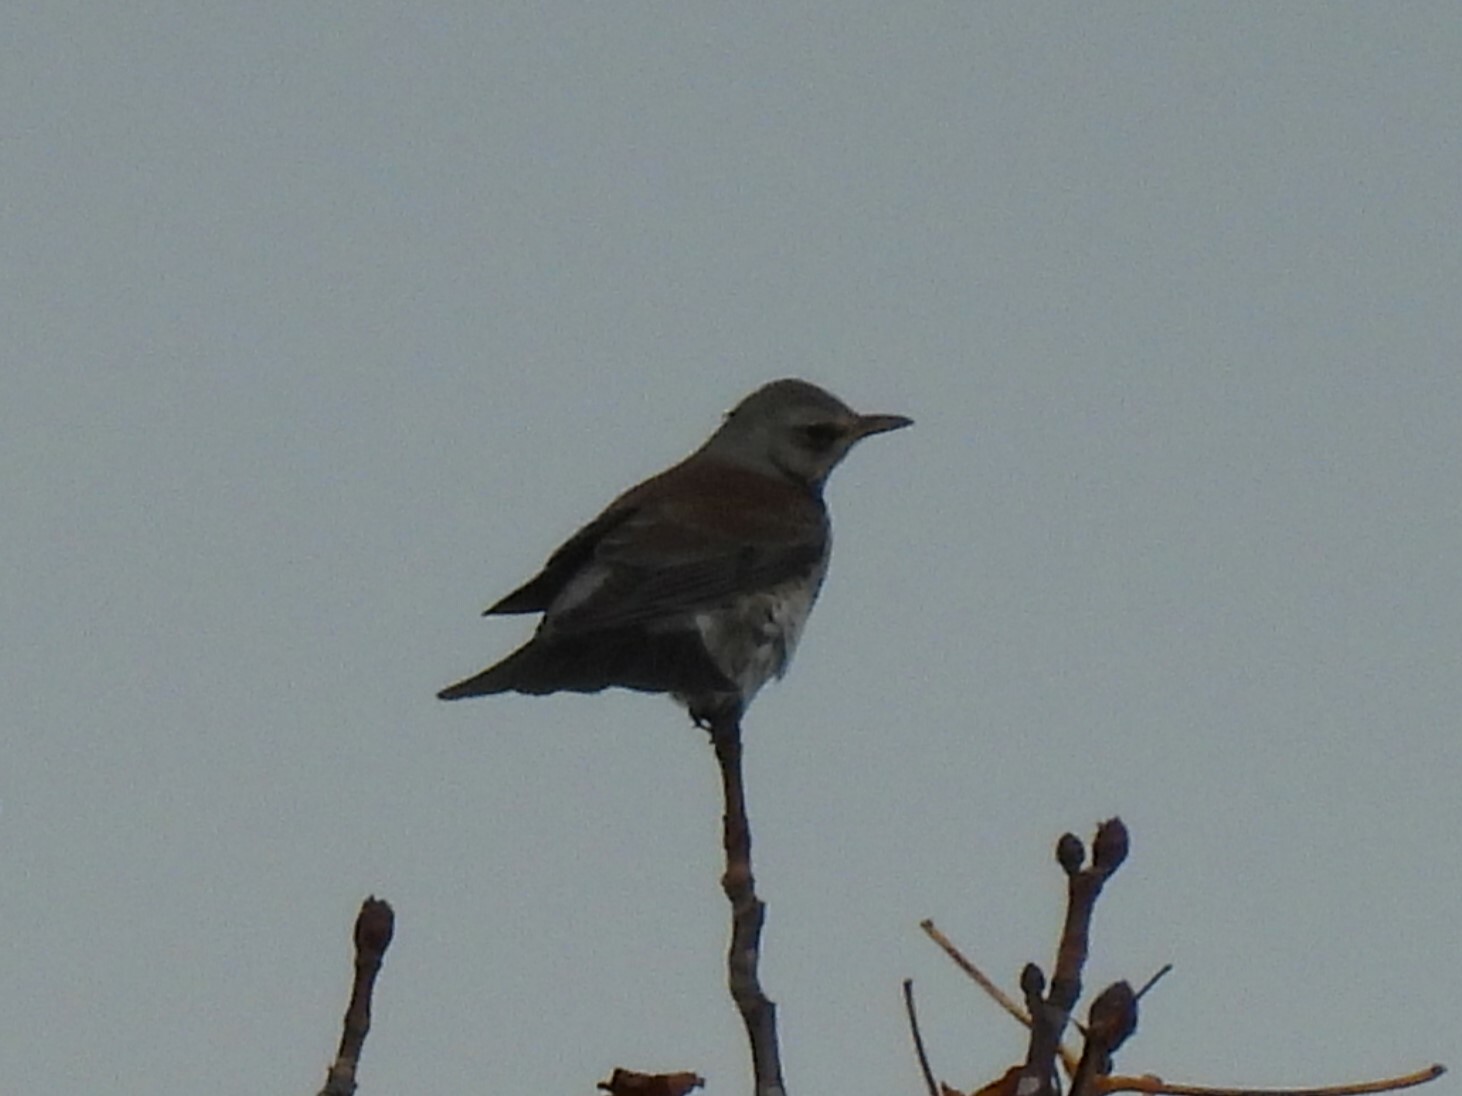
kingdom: Animalia
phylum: Chordata
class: Aves
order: Passeriformes
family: Turdidae
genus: Turdus
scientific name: Turdus pilaris
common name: Fieldfare
